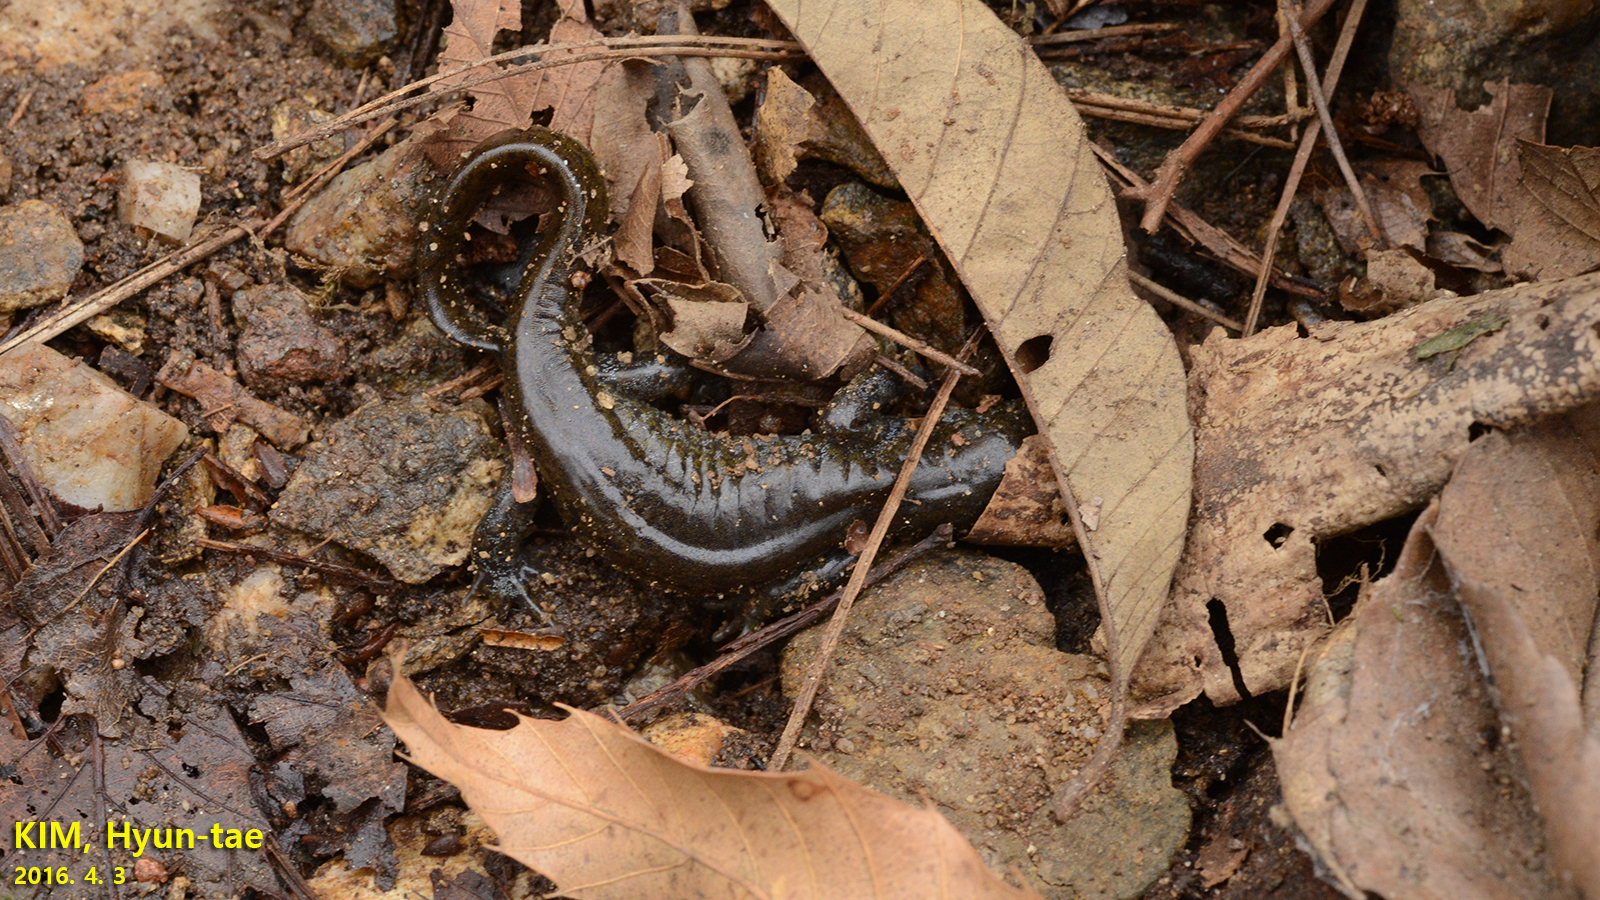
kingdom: Animalia
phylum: Chordata
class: Amphibia
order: Caudata
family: Hynobiidae
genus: Hynobius
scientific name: Hynobius leechii
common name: Gensan salamander
